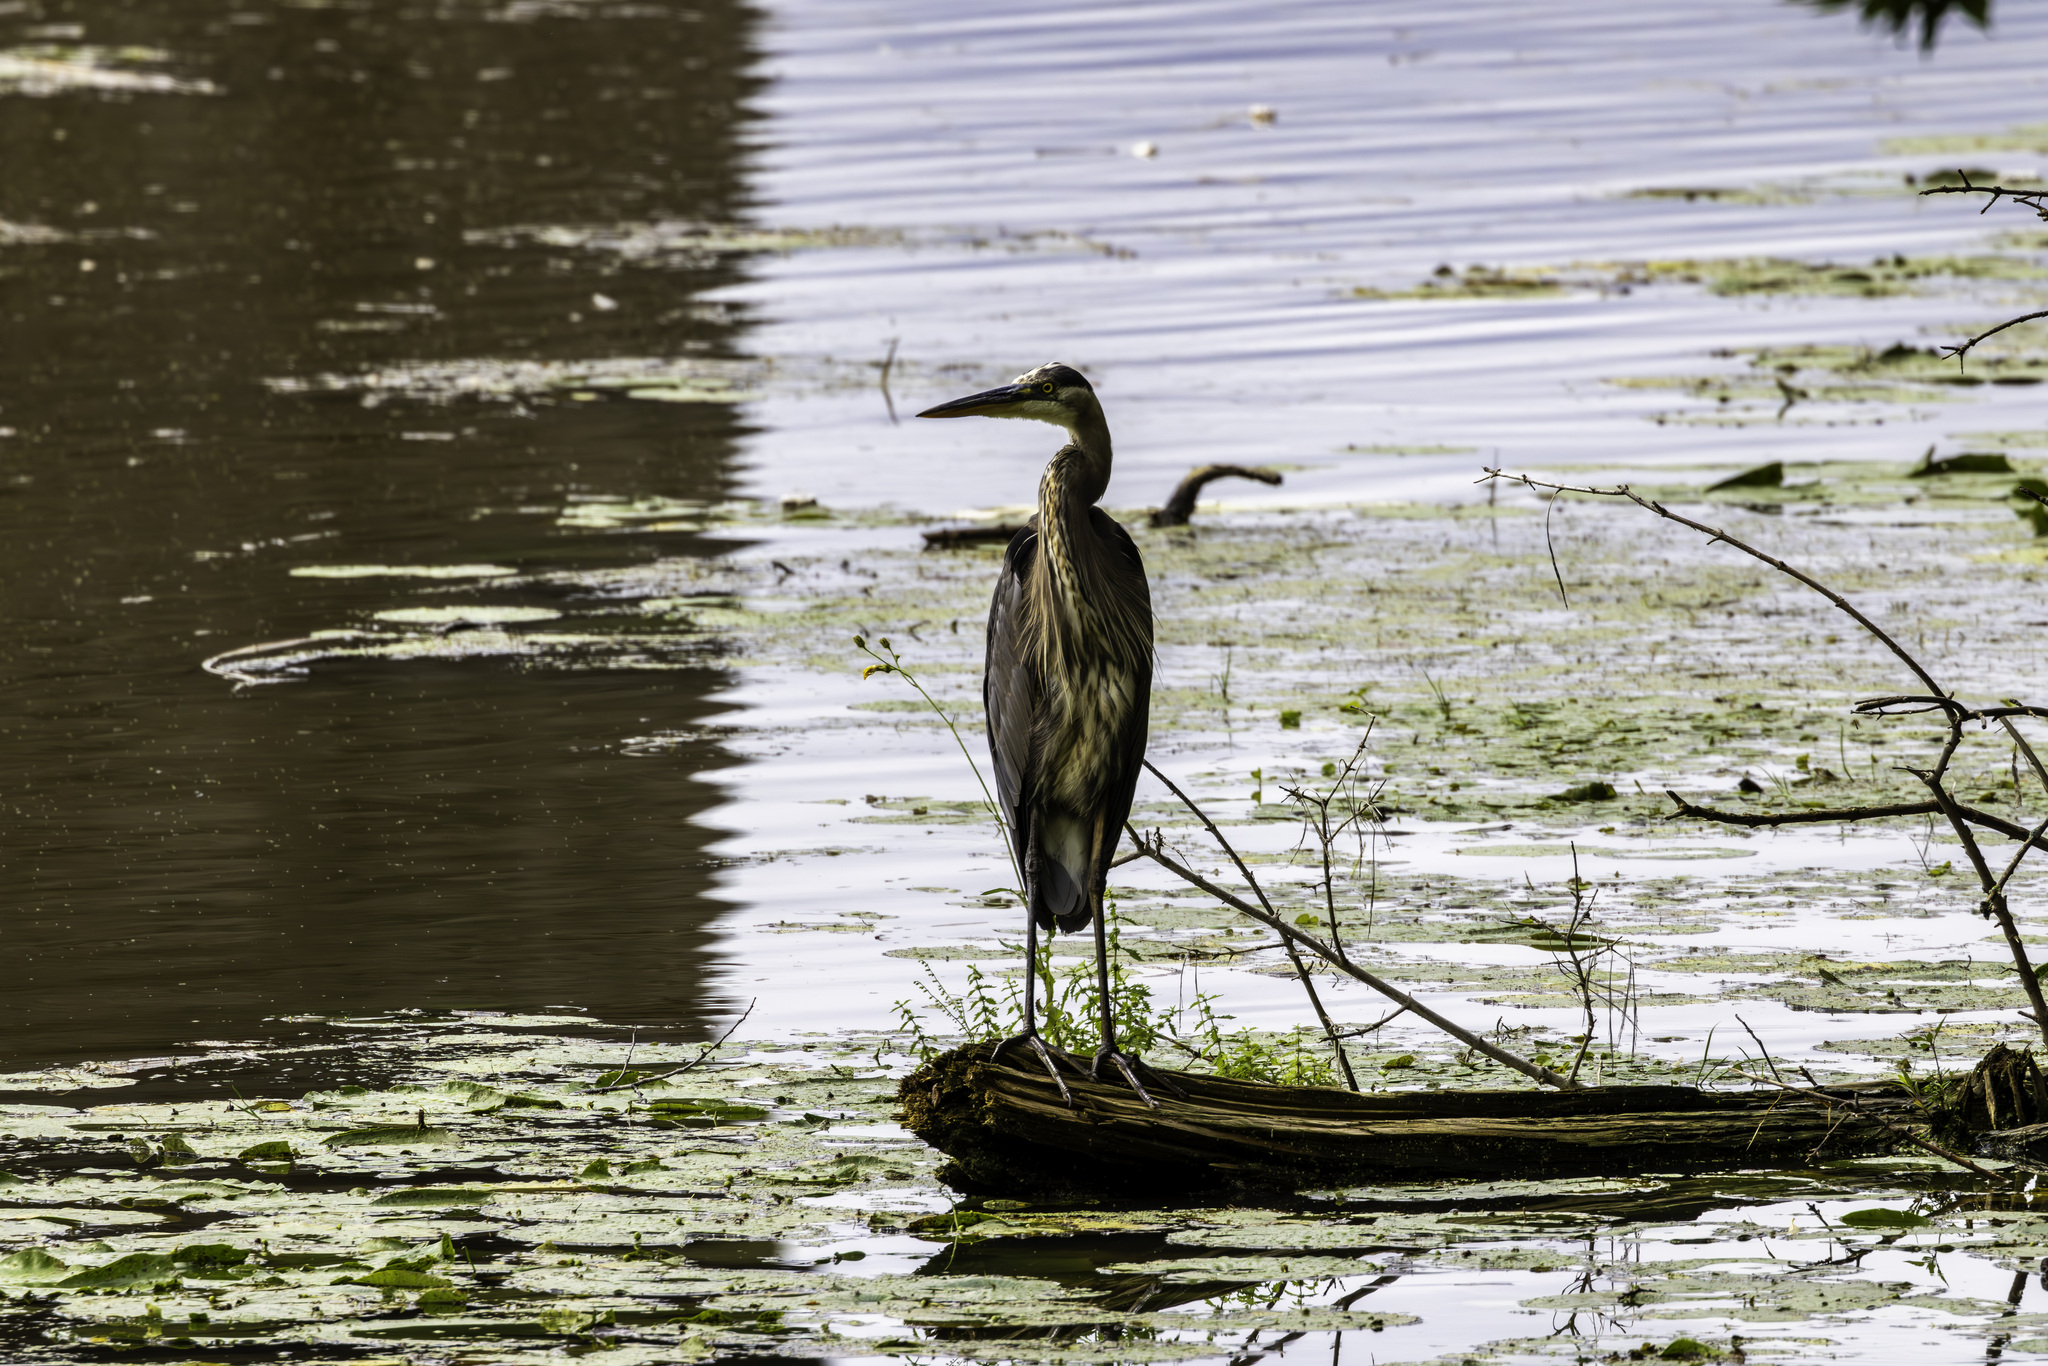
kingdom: Animalia
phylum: Chordata
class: Aves
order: Pelecaniformes
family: Ardeidae
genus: Ardea
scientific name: Ardea herodias
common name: Great blue heron
